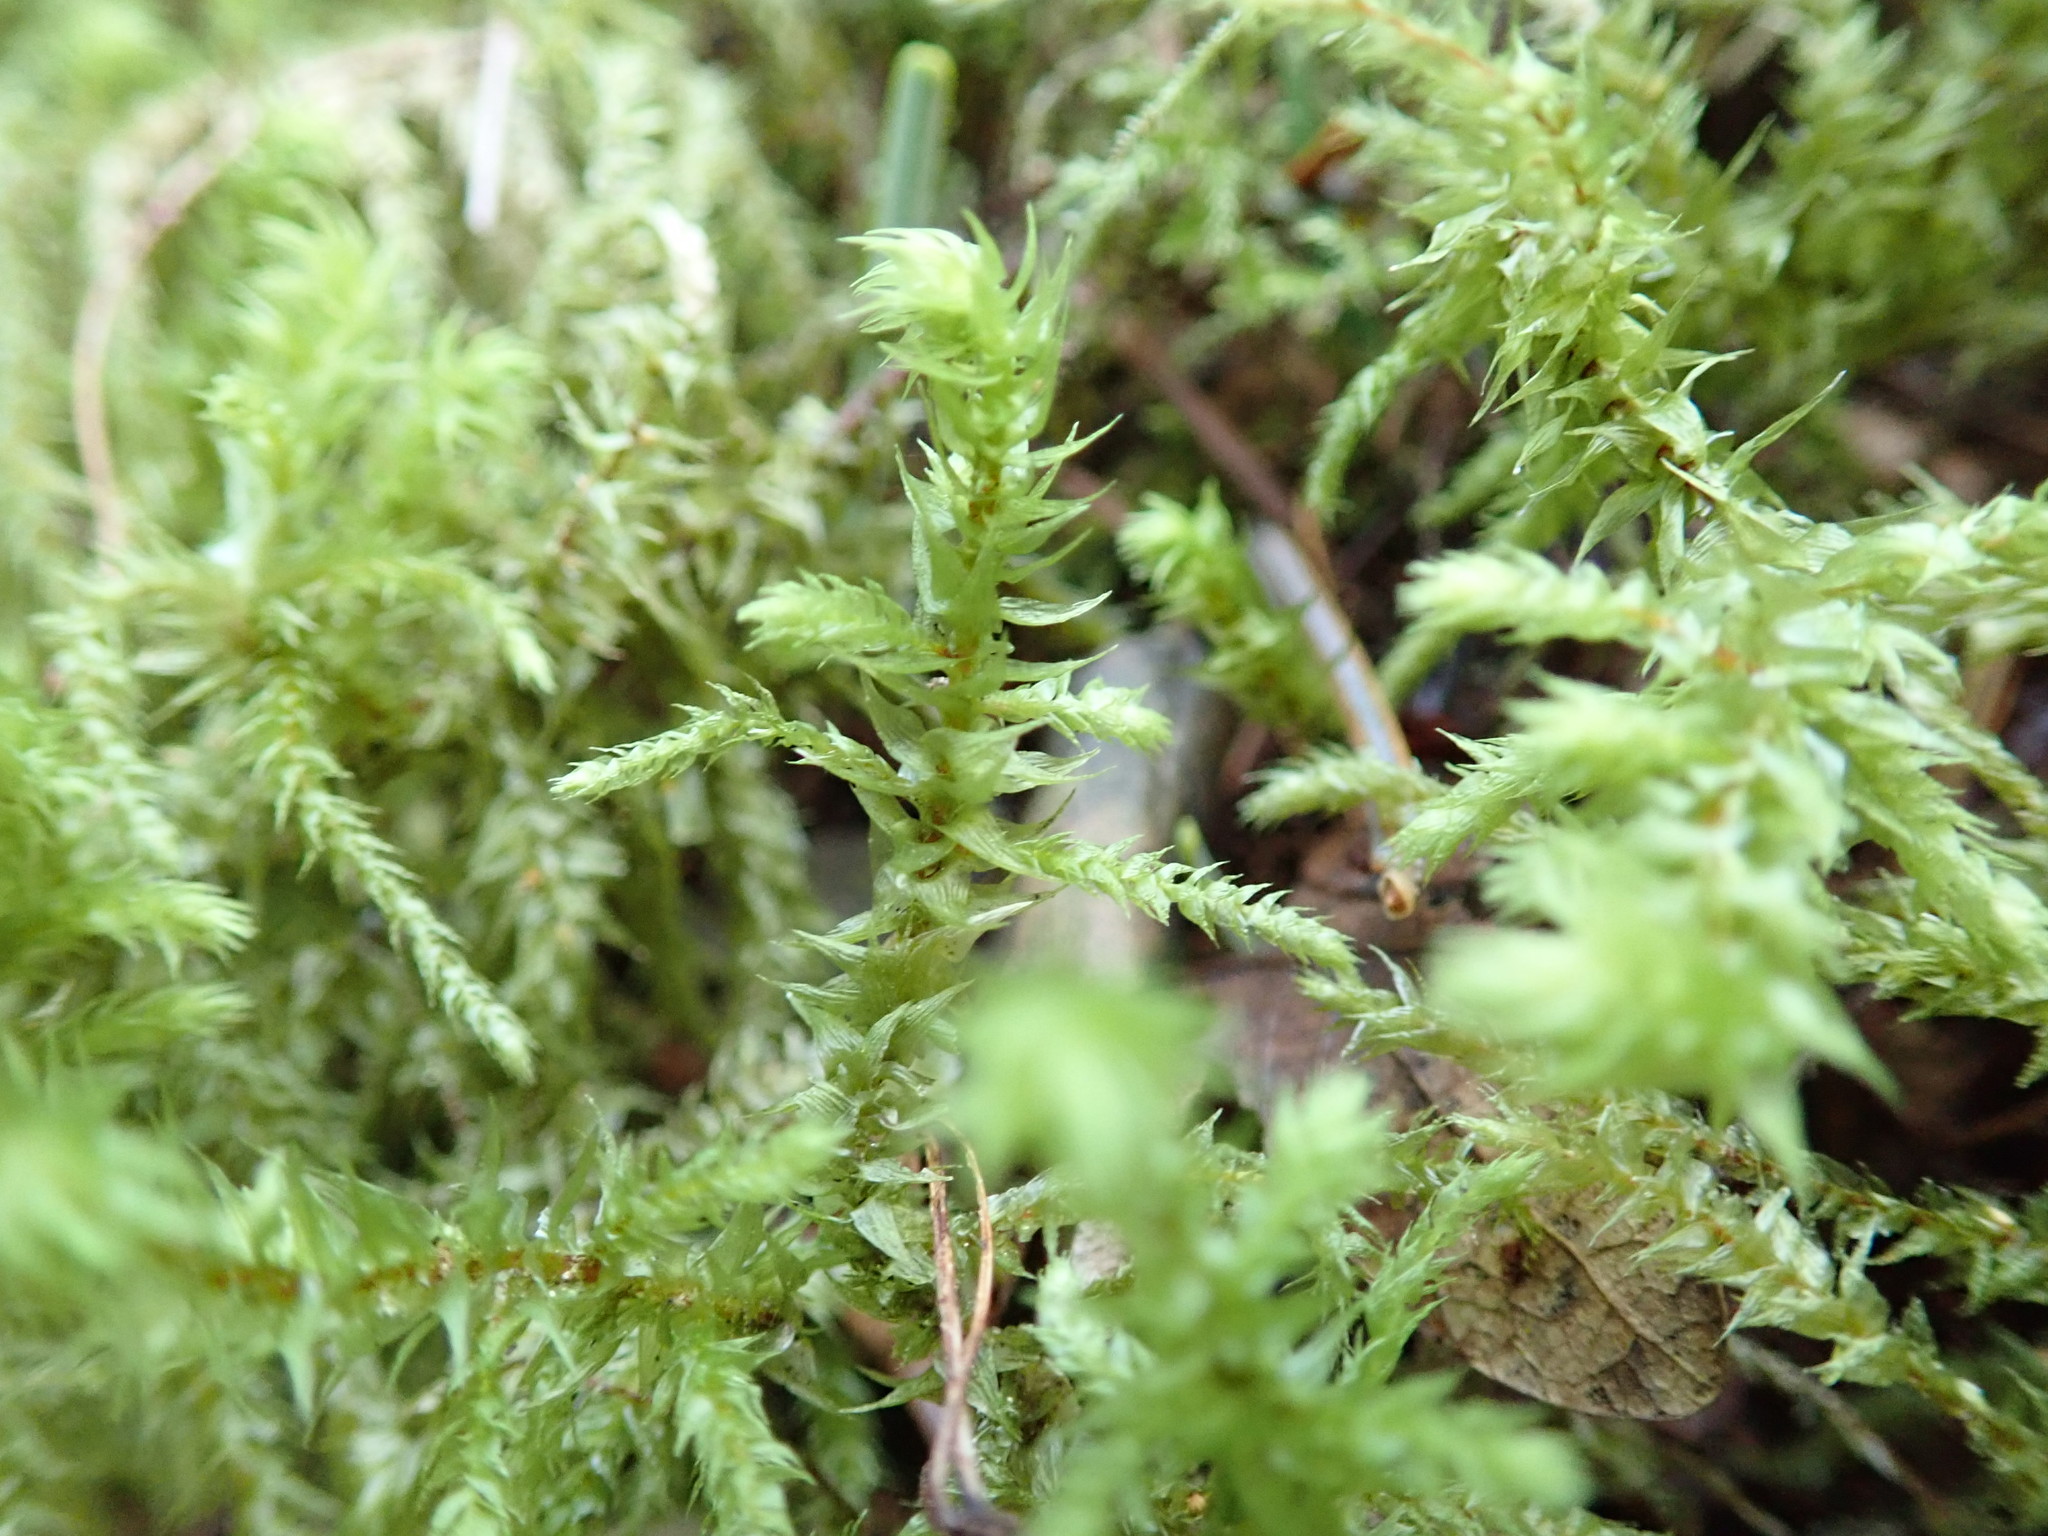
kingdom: Plantae
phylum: Bryophyta
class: Bryopsida
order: Hypnales
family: Hylocomiaceae
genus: Hylocomiadelphus
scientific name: Hylocomiadelphus triquetrus
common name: Rough goose neck moss
